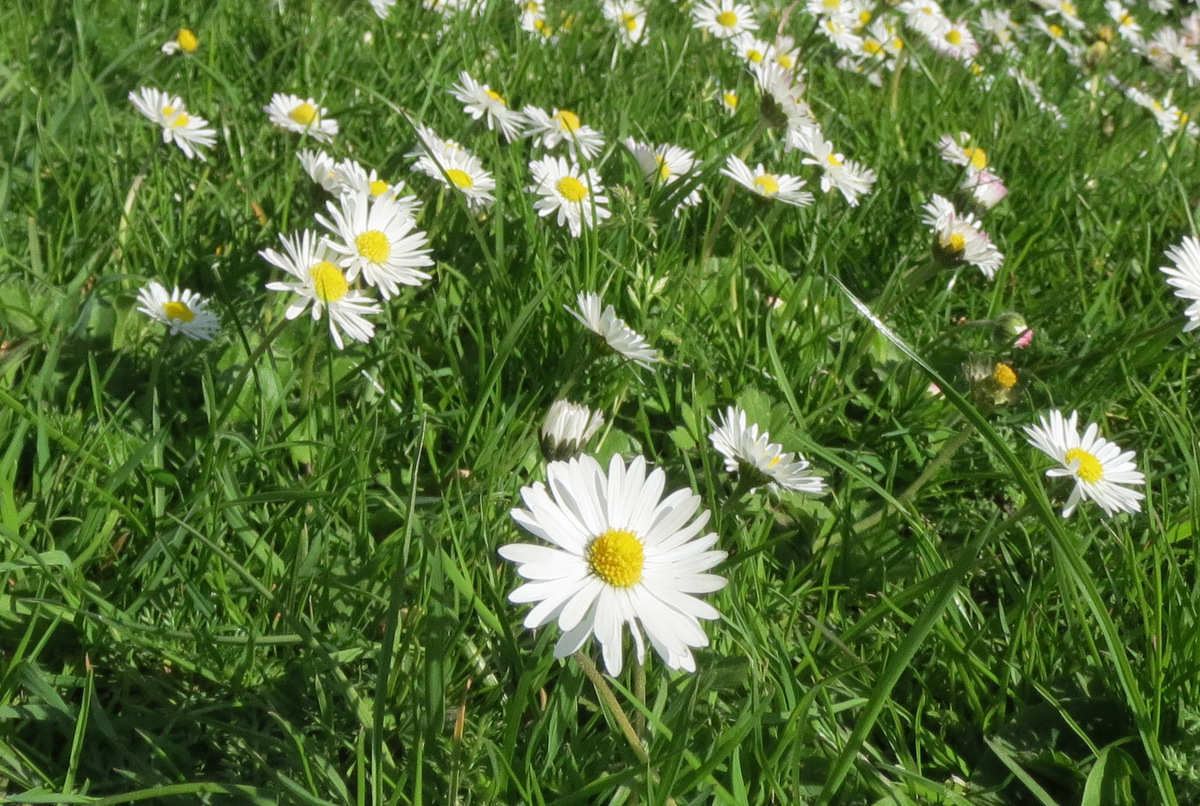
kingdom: Plantae
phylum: Tracheophyta
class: Magnoliopsida
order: Asterales
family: Asteraceae
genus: Bellis
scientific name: Bellis perennis
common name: Lawndaisy
